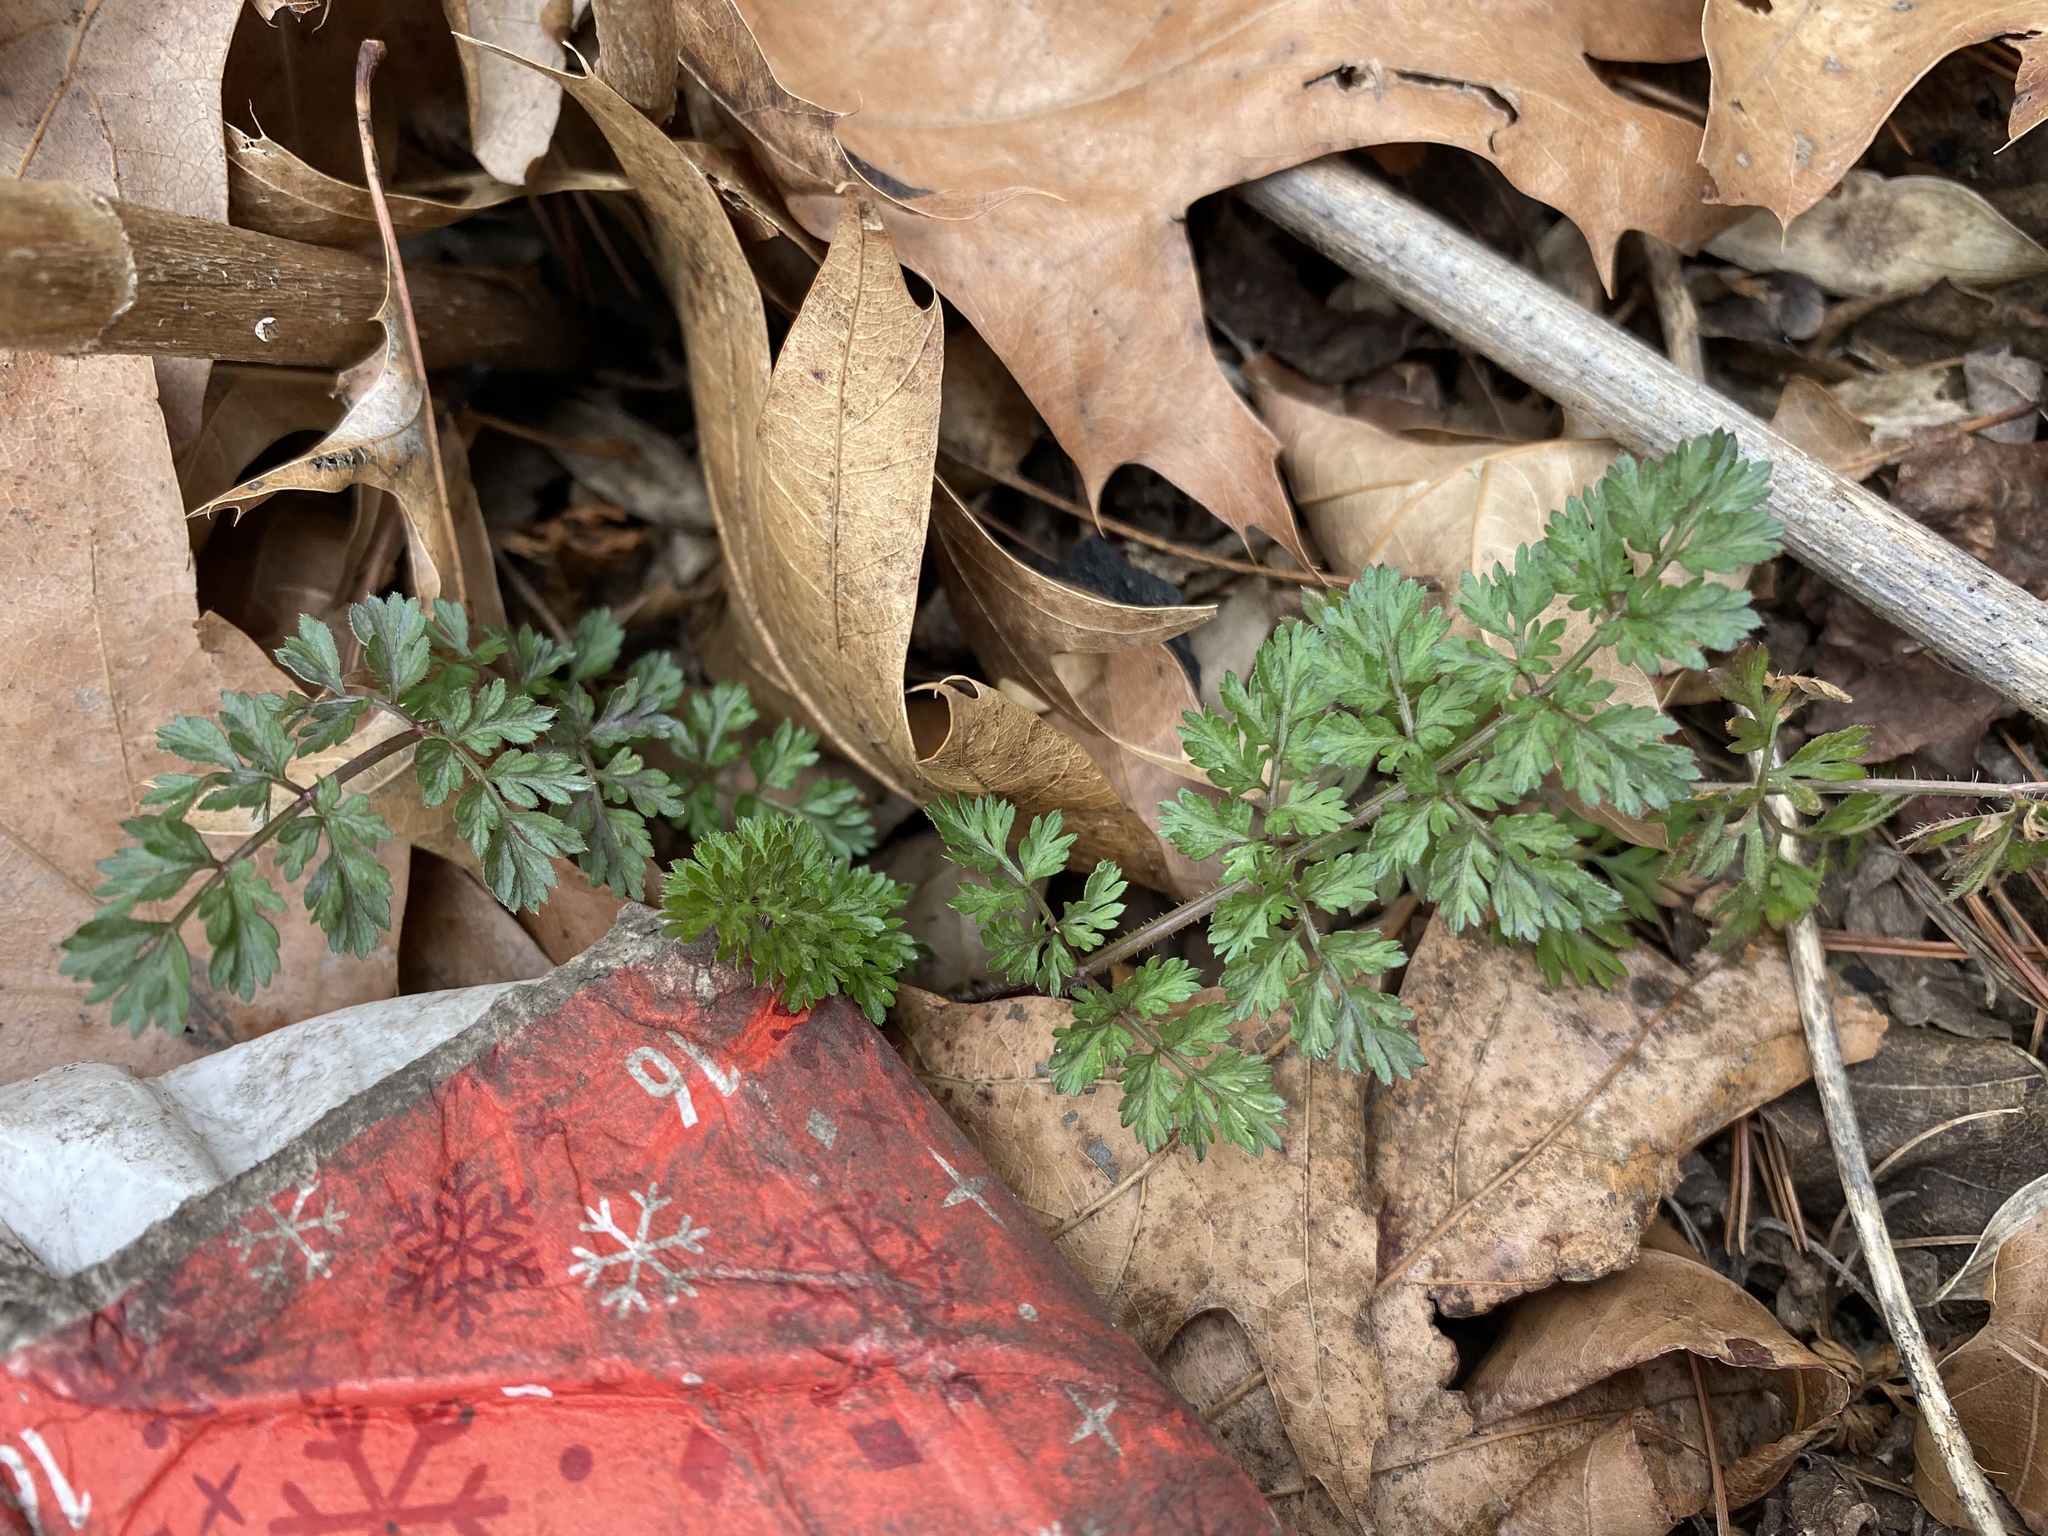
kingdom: Plantae
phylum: Tracheophyta
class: Magnoliopsida
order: Apiales
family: Apiaceae
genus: Daucus
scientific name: Daucus carota
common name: Wild carrot
